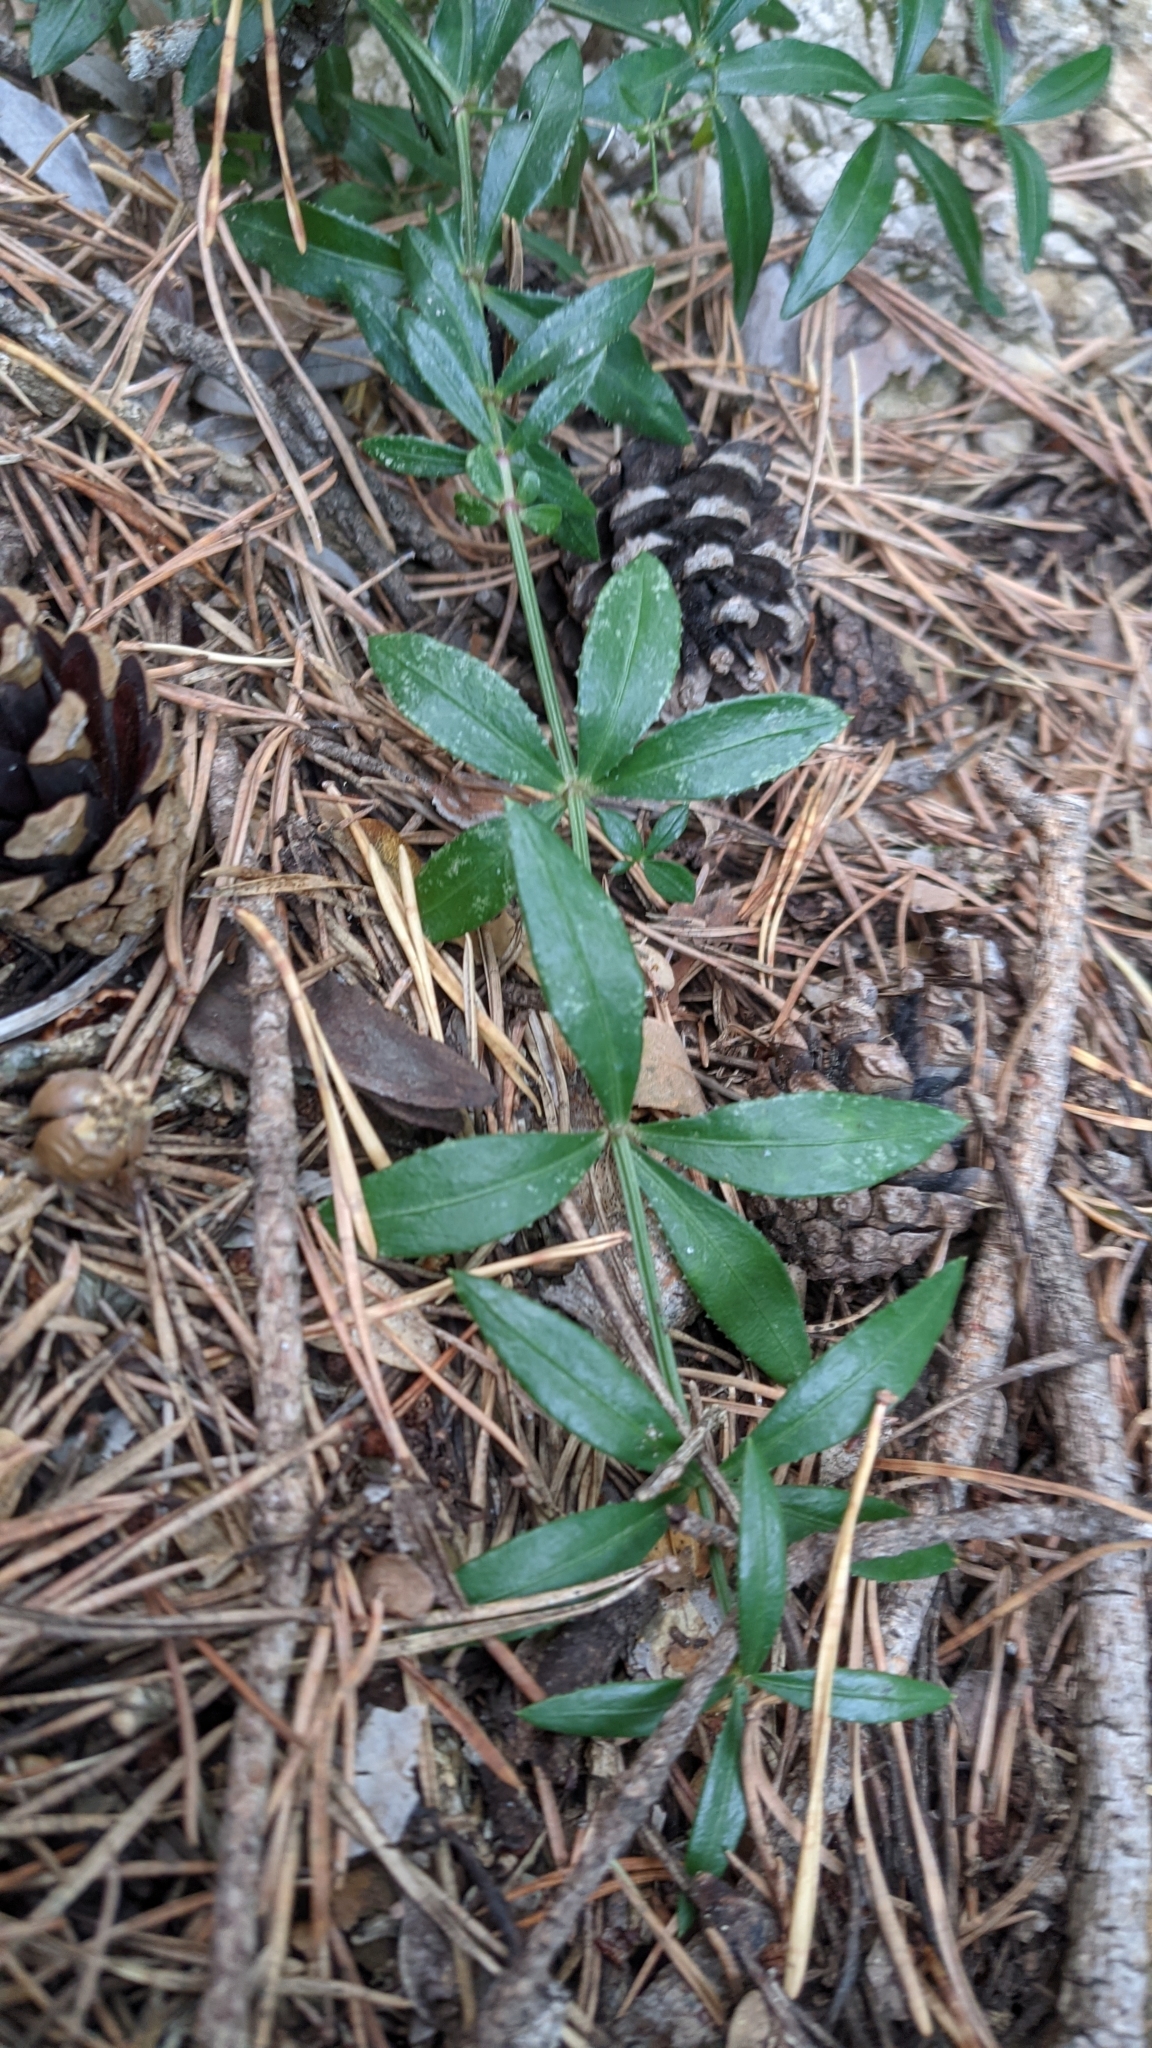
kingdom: Plantae
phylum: Tracheophyta
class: Magnoliopsida
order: Gentianales
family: Rubiaceae
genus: Rubia
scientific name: Rubia peregrina
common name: Wild madder
